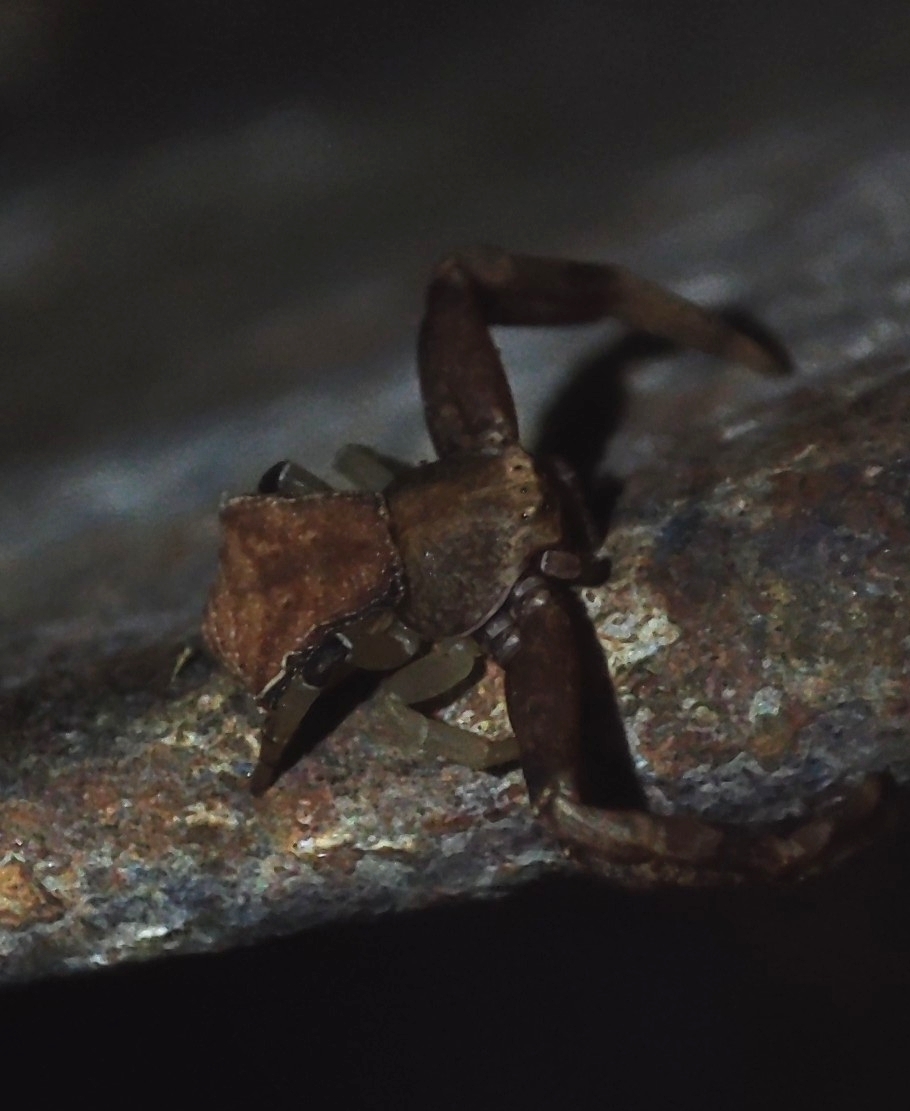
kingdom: Animalia
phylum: Arthropoda
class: Arachnida
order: Araneae
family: Thomisidae
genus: Pistius
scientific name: Pistius truncatus
